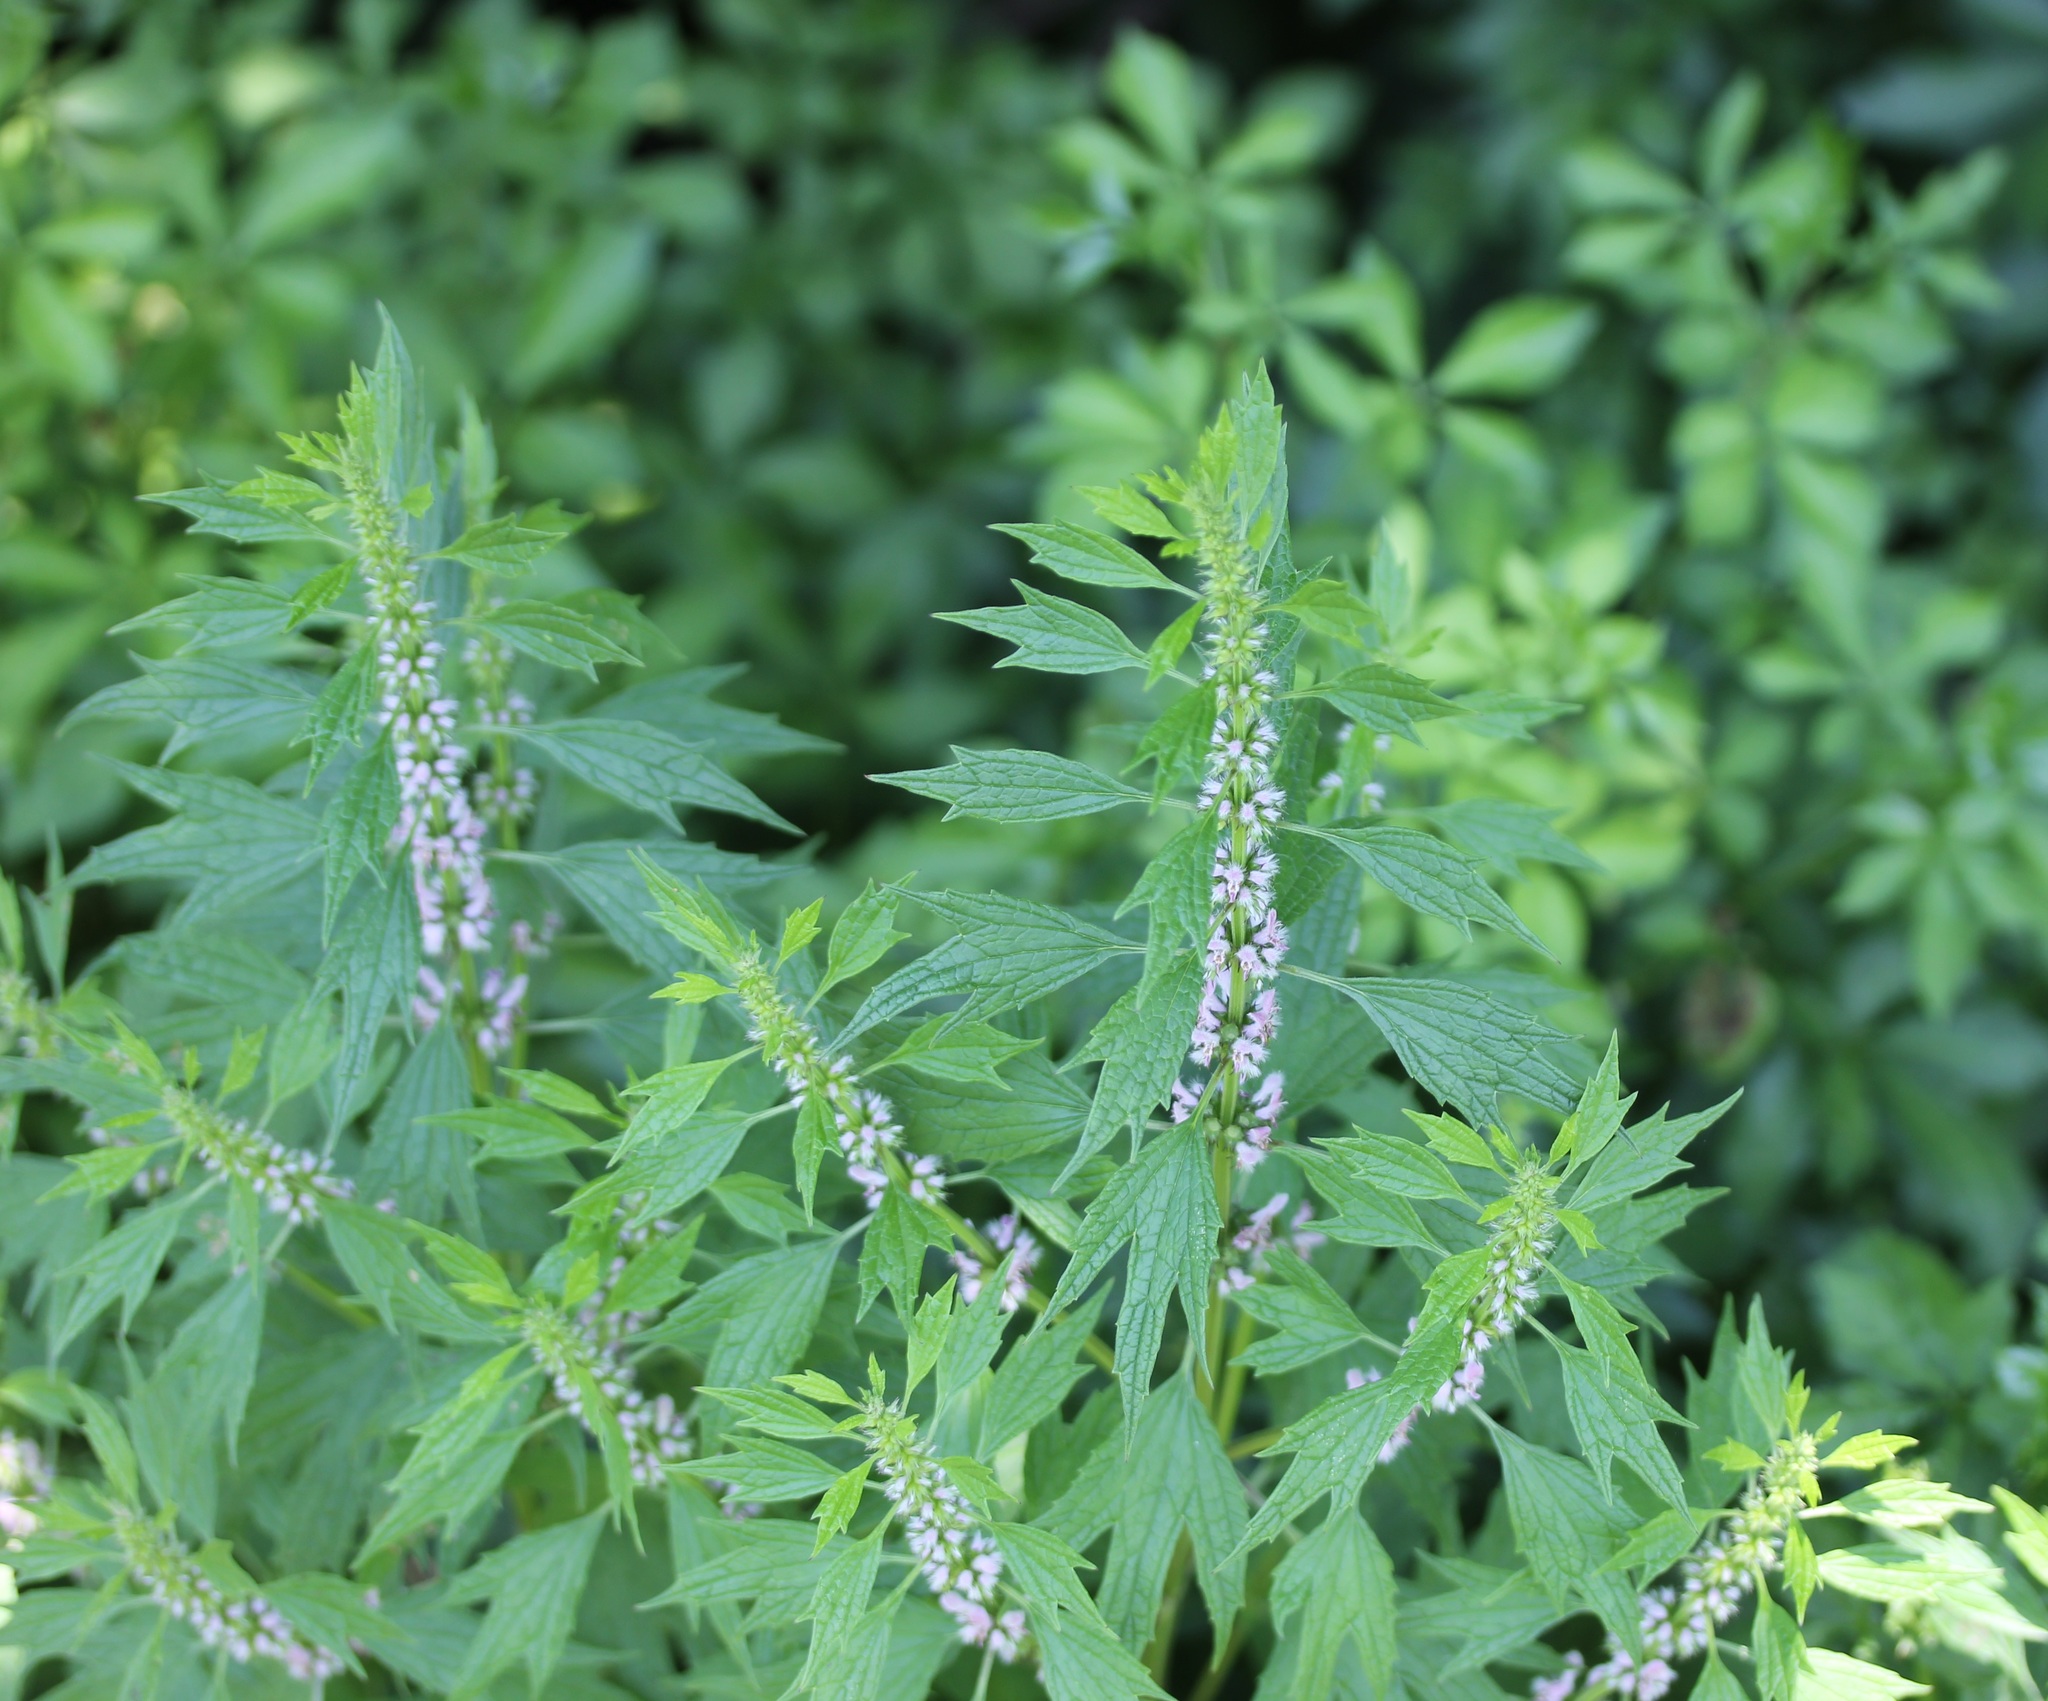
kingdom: Plantae
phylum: Tracheophyta
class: Magnoliopsida
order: Lamiales
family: Lamiaceae
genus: Leonurus
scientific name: Leonurus cardiaca
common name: Motherwort
